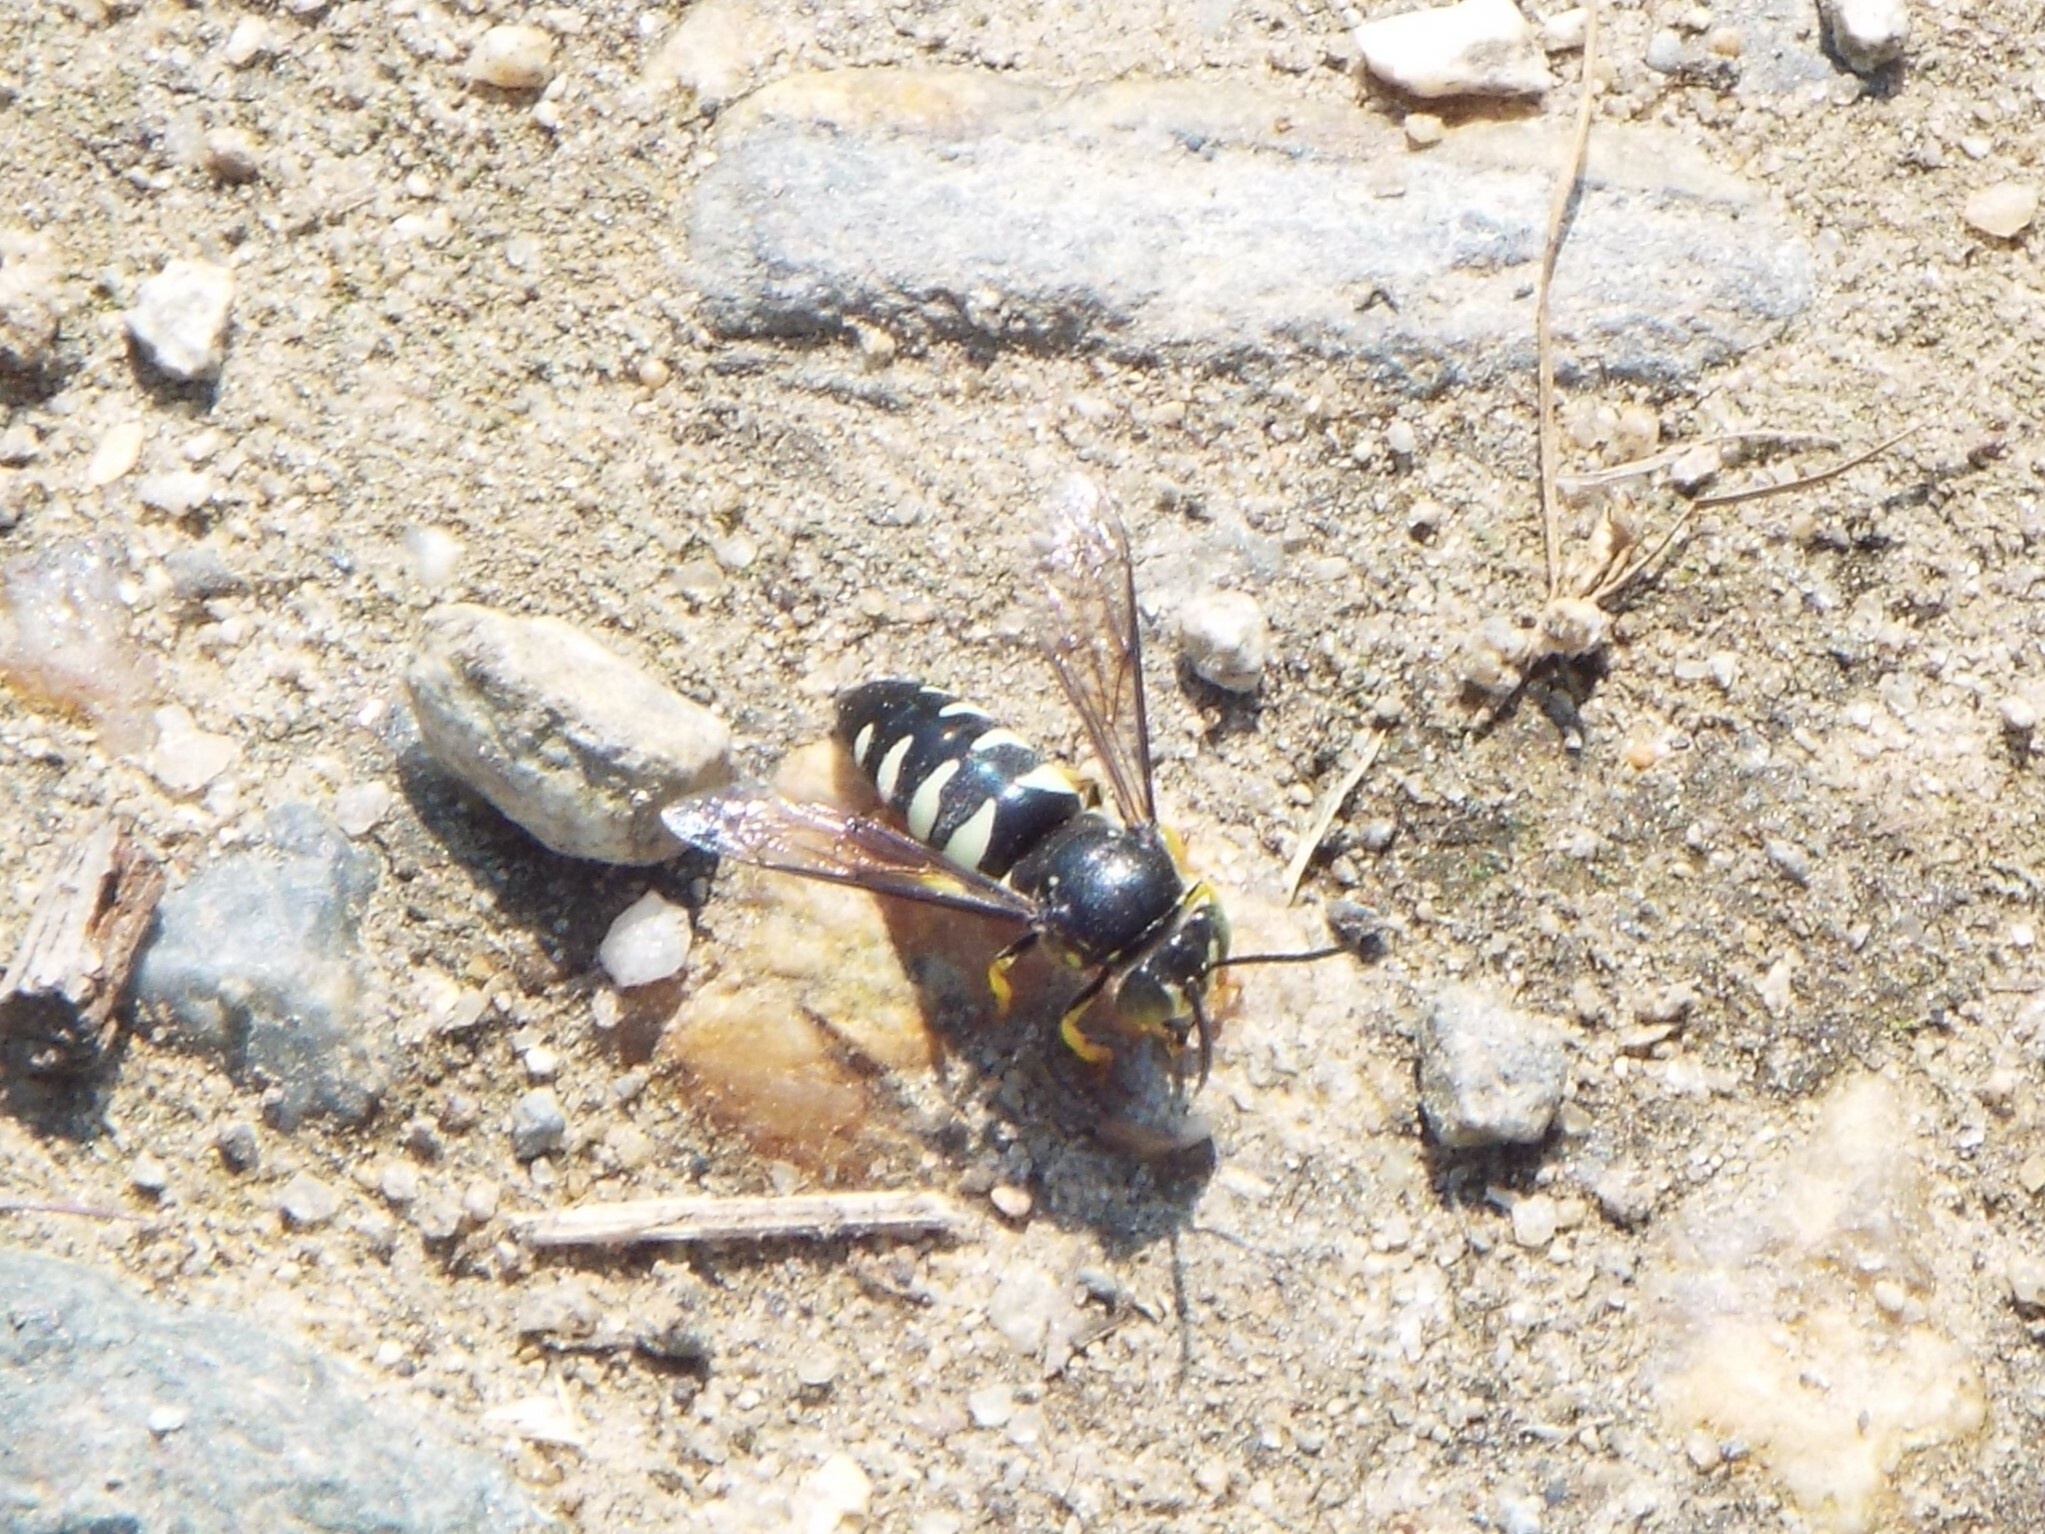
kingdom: Animalia
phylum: Arthropoda
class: Insecta
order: Hymenoptera
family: Crabronidae
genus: Bicyrtes
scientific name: Bicyrtes quadrifasciatus
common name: Four-banded stink bug hunter wasp
